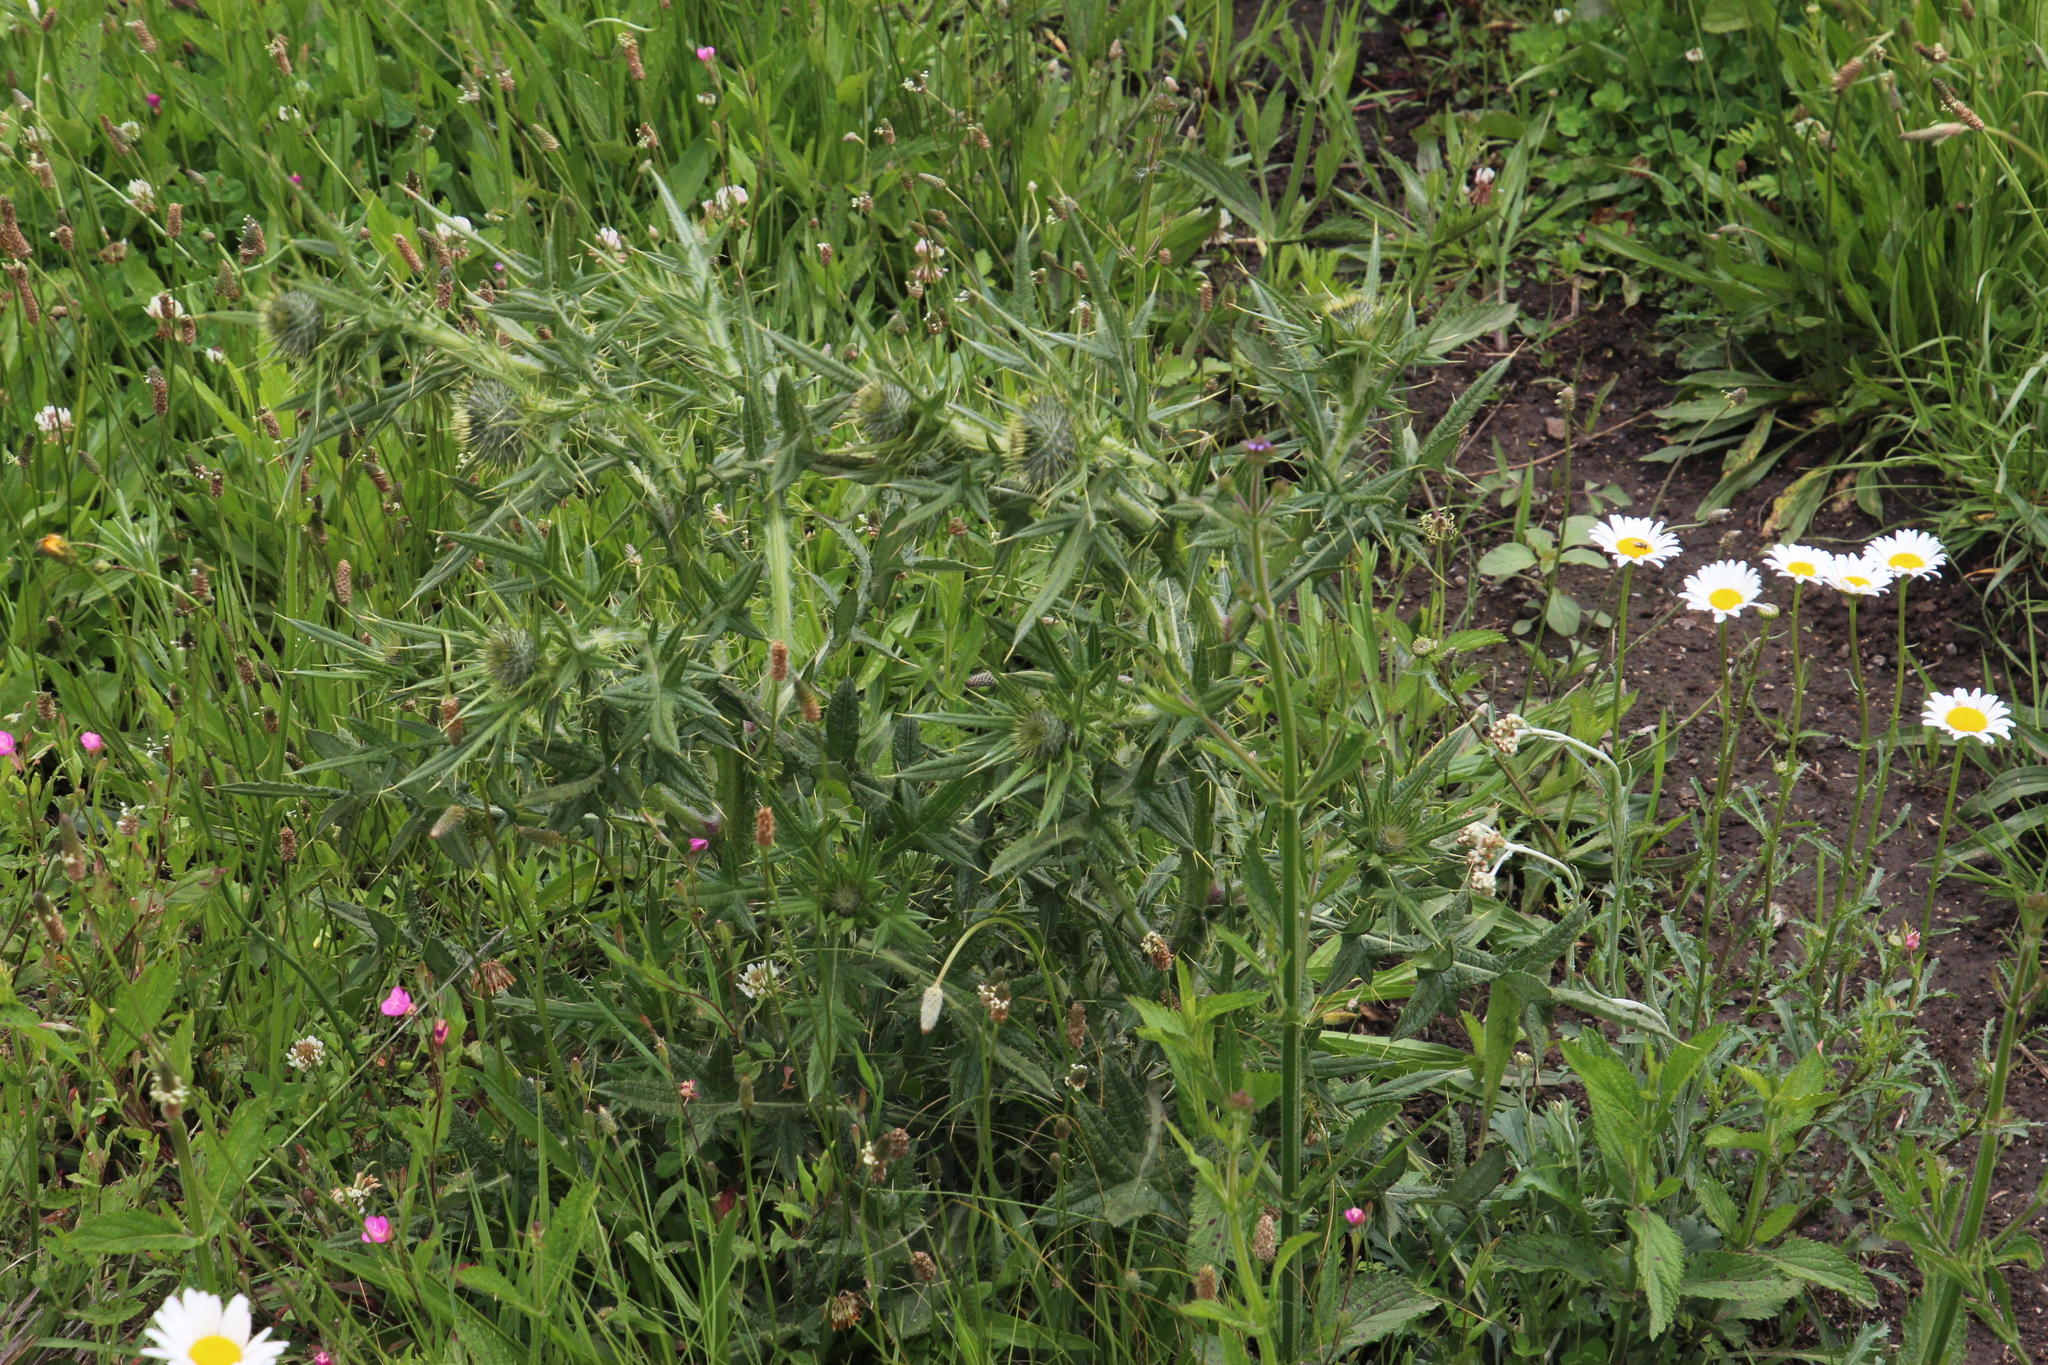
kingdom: Plantae
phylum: Tracheophyta
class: Magnoliopsida
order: Asterales
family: Asteraceae
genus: Cirsium
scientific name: Cirsium vulgare
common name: Bull thistle
